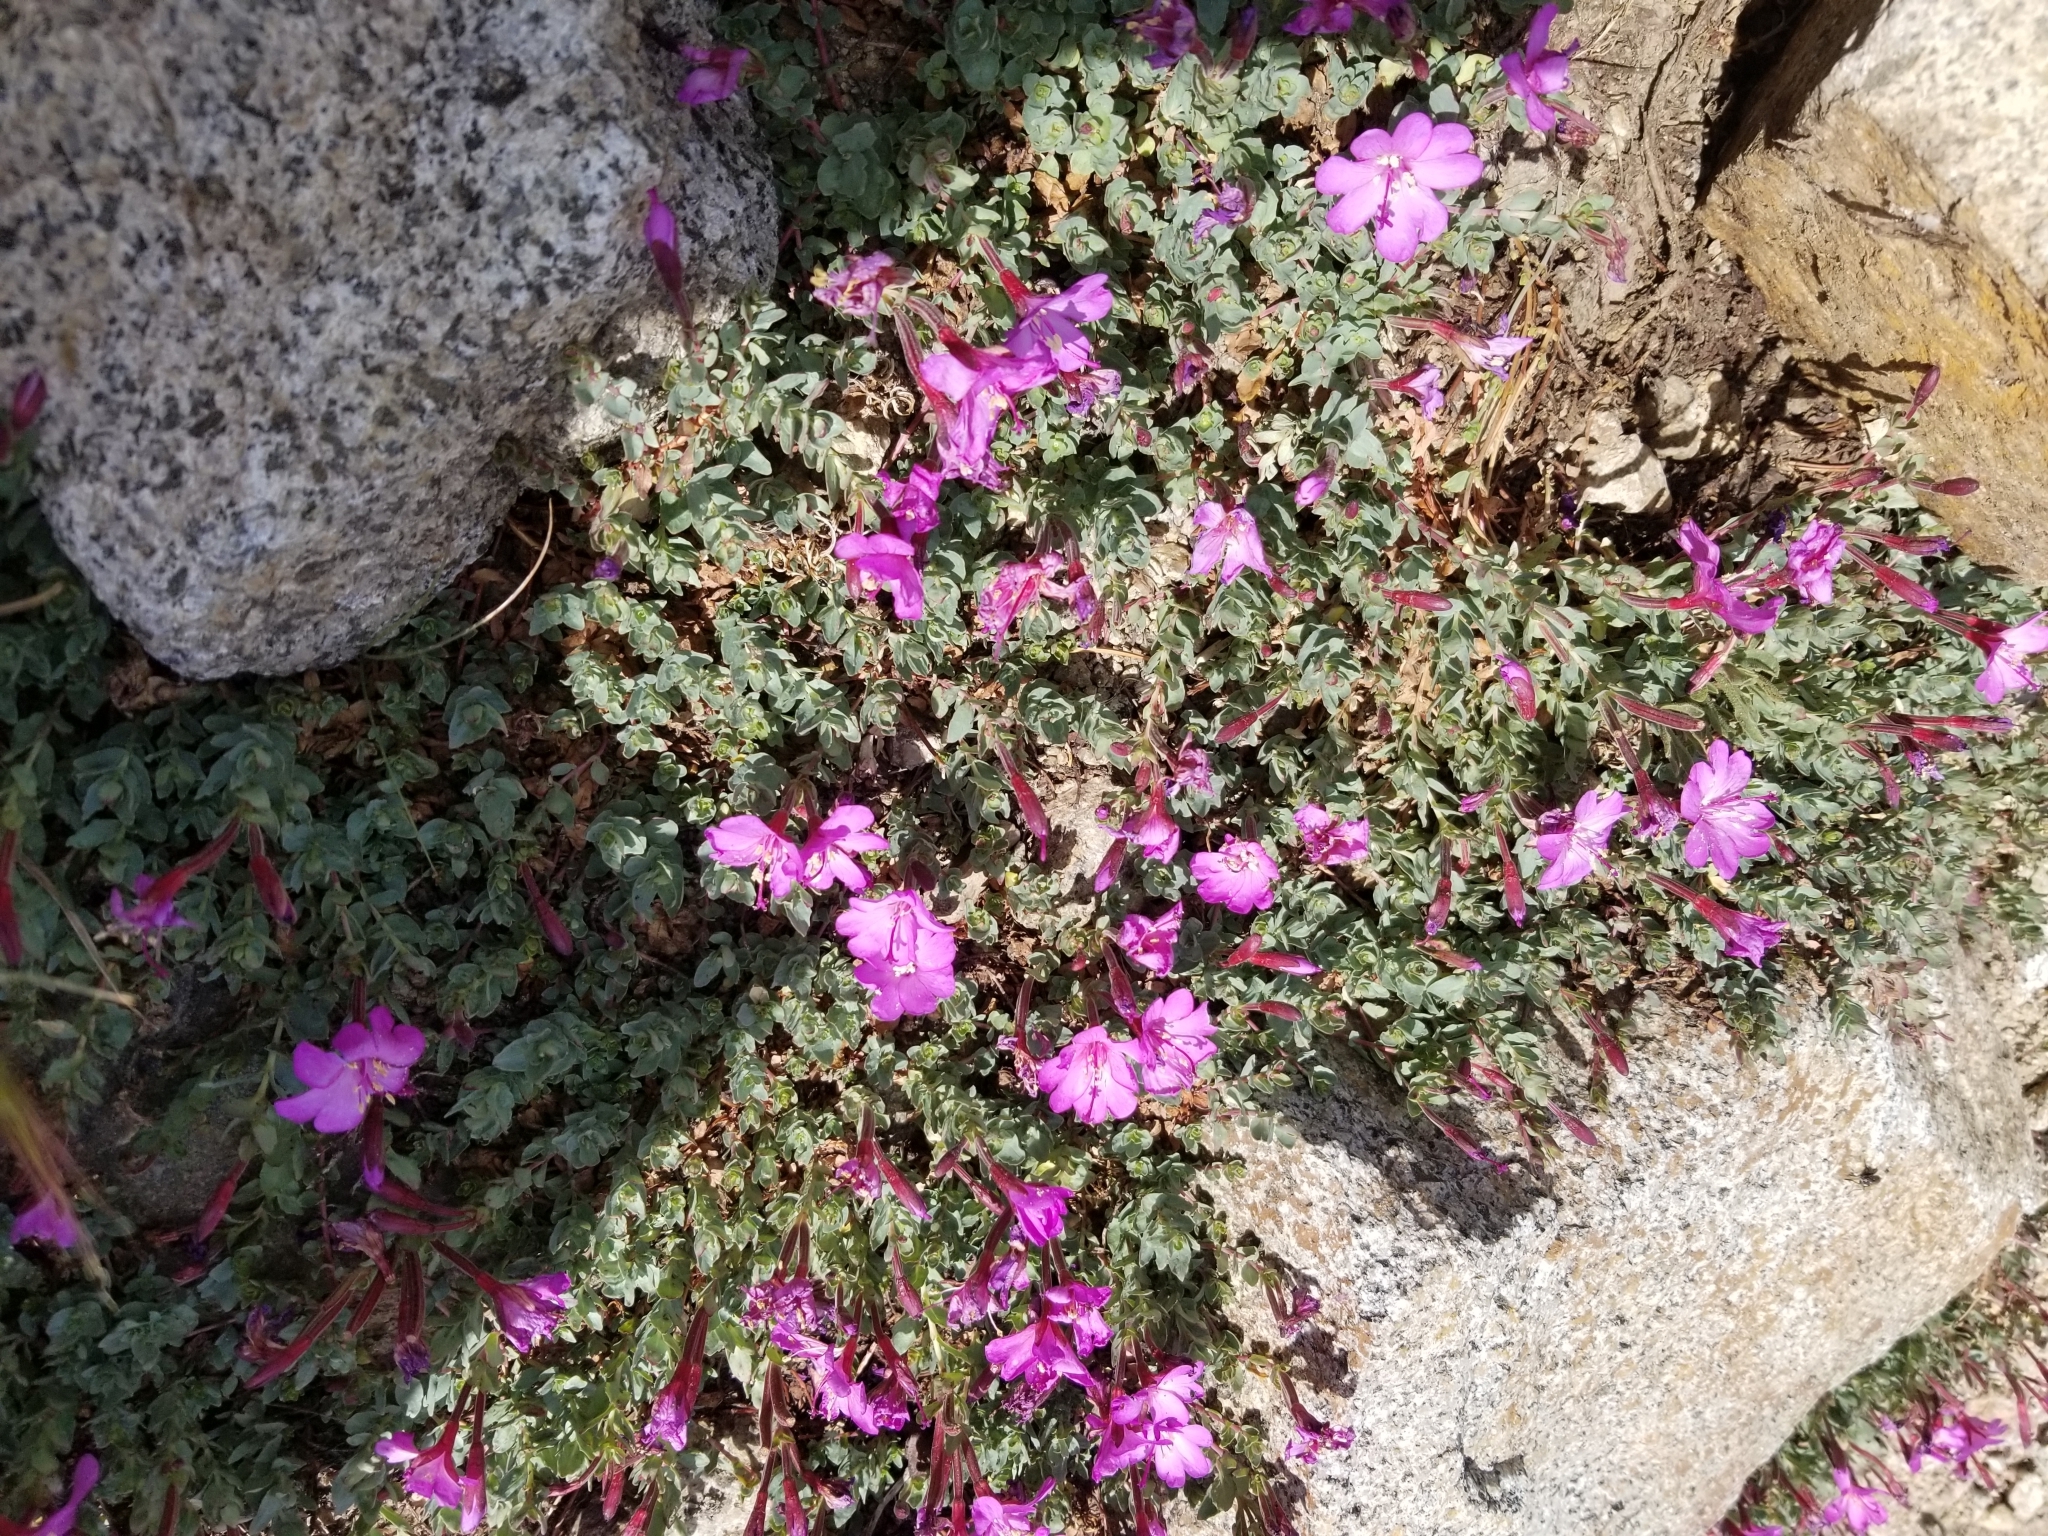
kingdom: Plantae
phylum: Tracheophyta
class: Magnoliopsida
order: Myrtales
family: Onagraceae
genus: Epilobium
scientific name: Epilobium obcordatum
